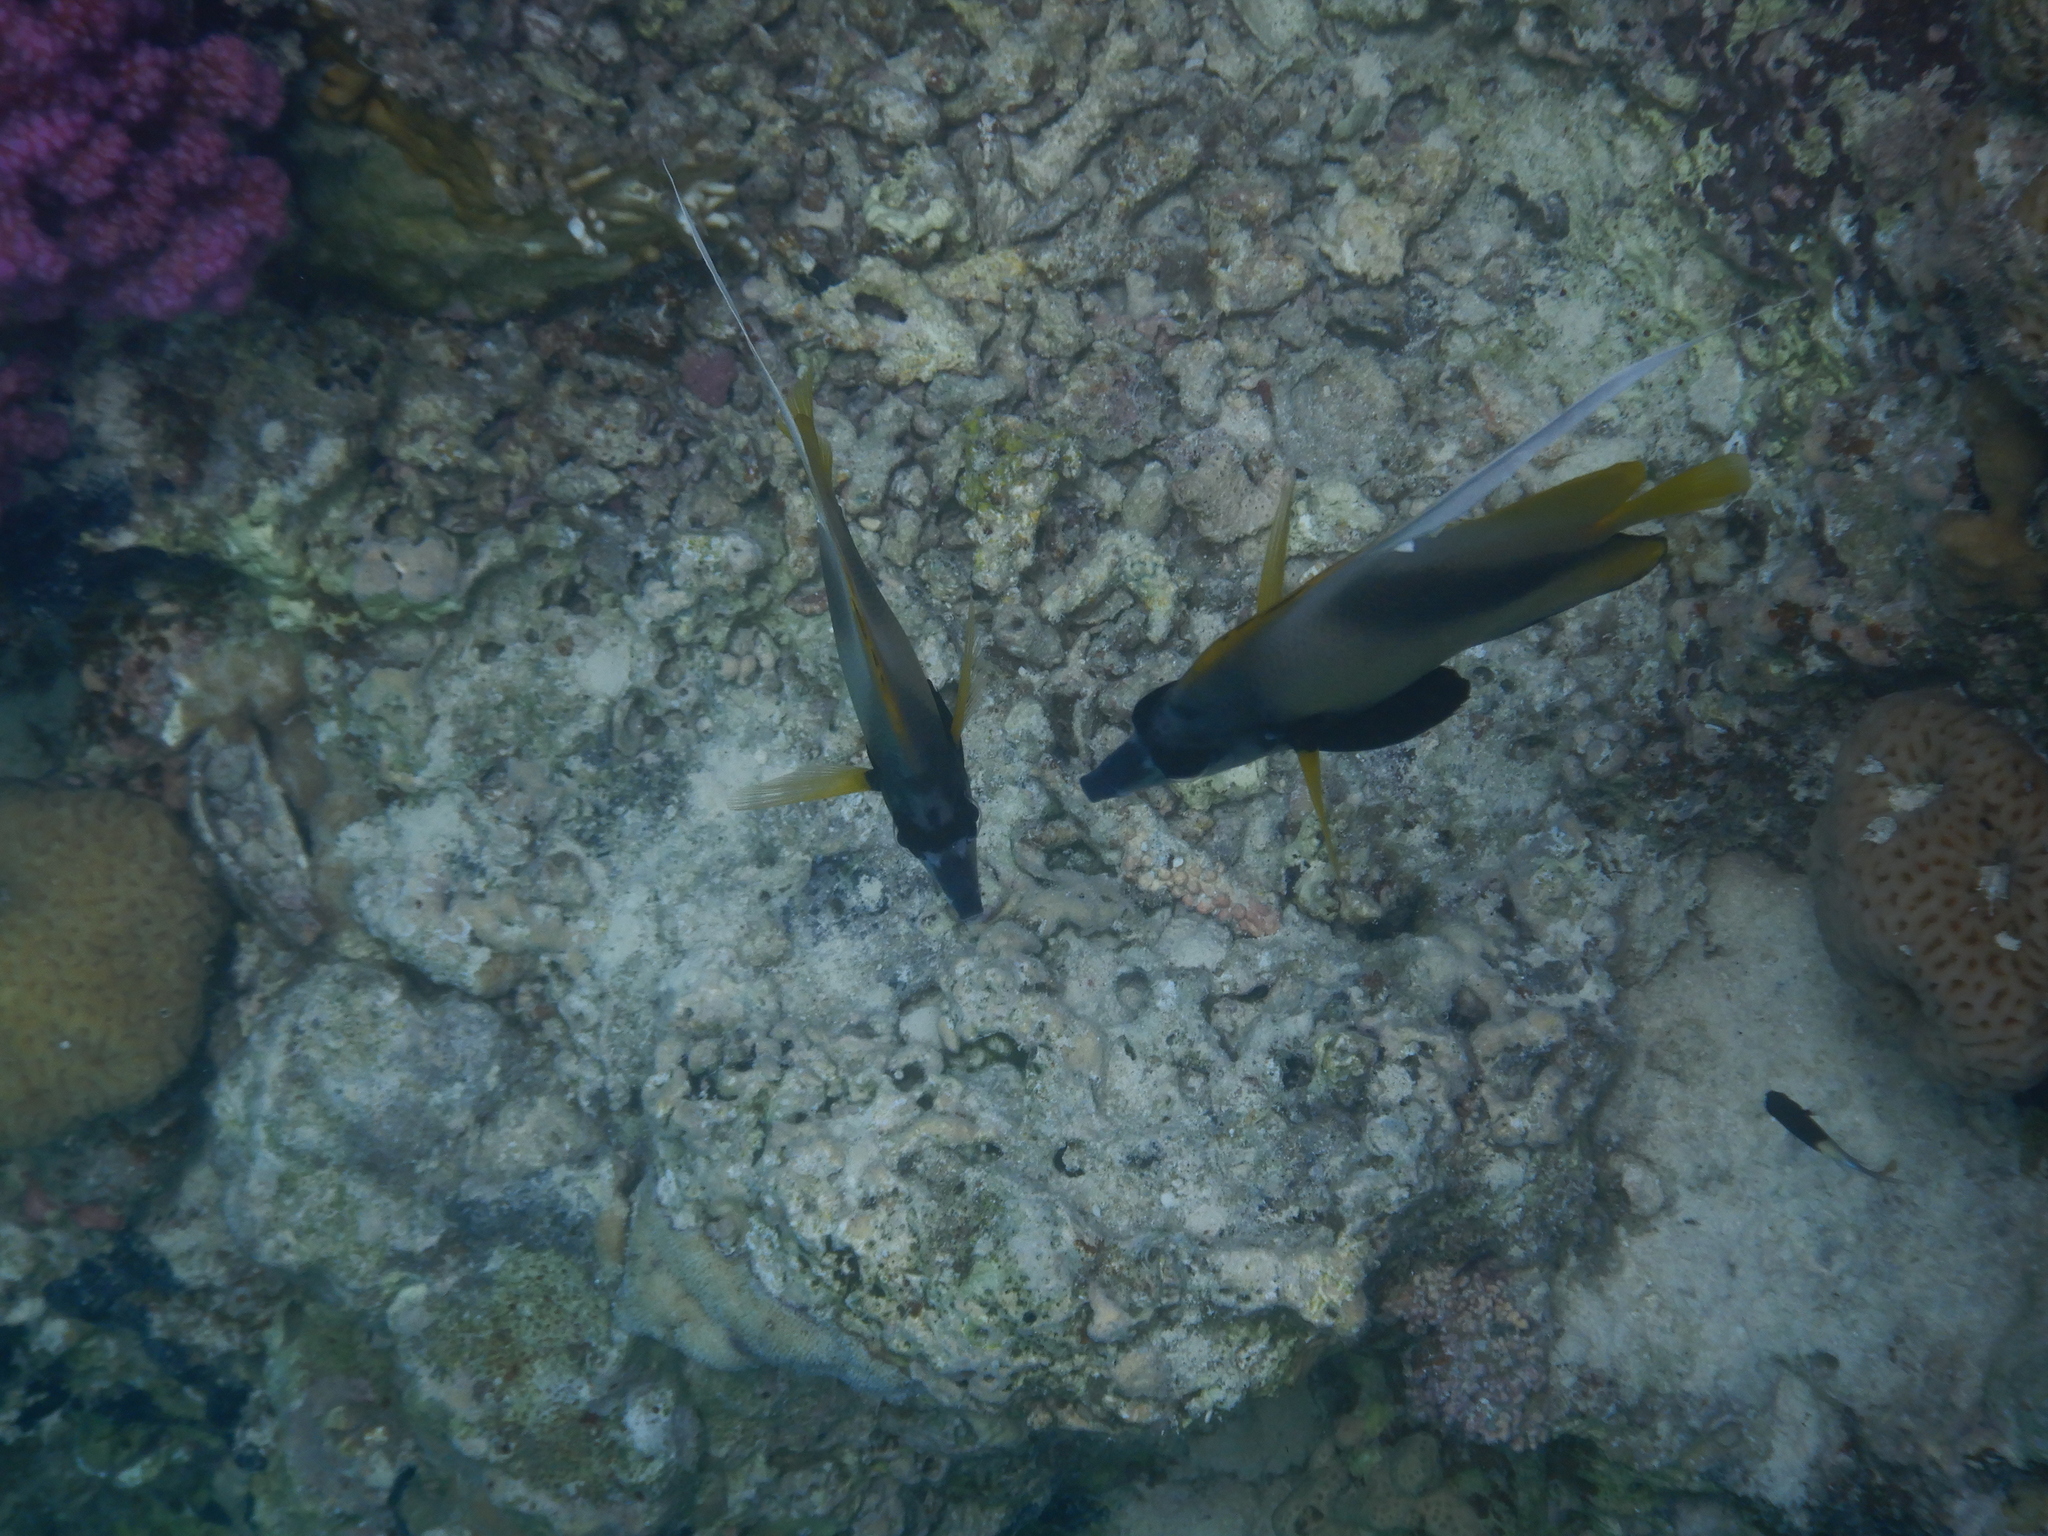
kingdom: Animalia
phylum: Chordata
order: Perciformes
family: Chaetodontidae
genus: Heniochus
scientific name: Heniochus intermedius
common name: Red sea bannerfish
